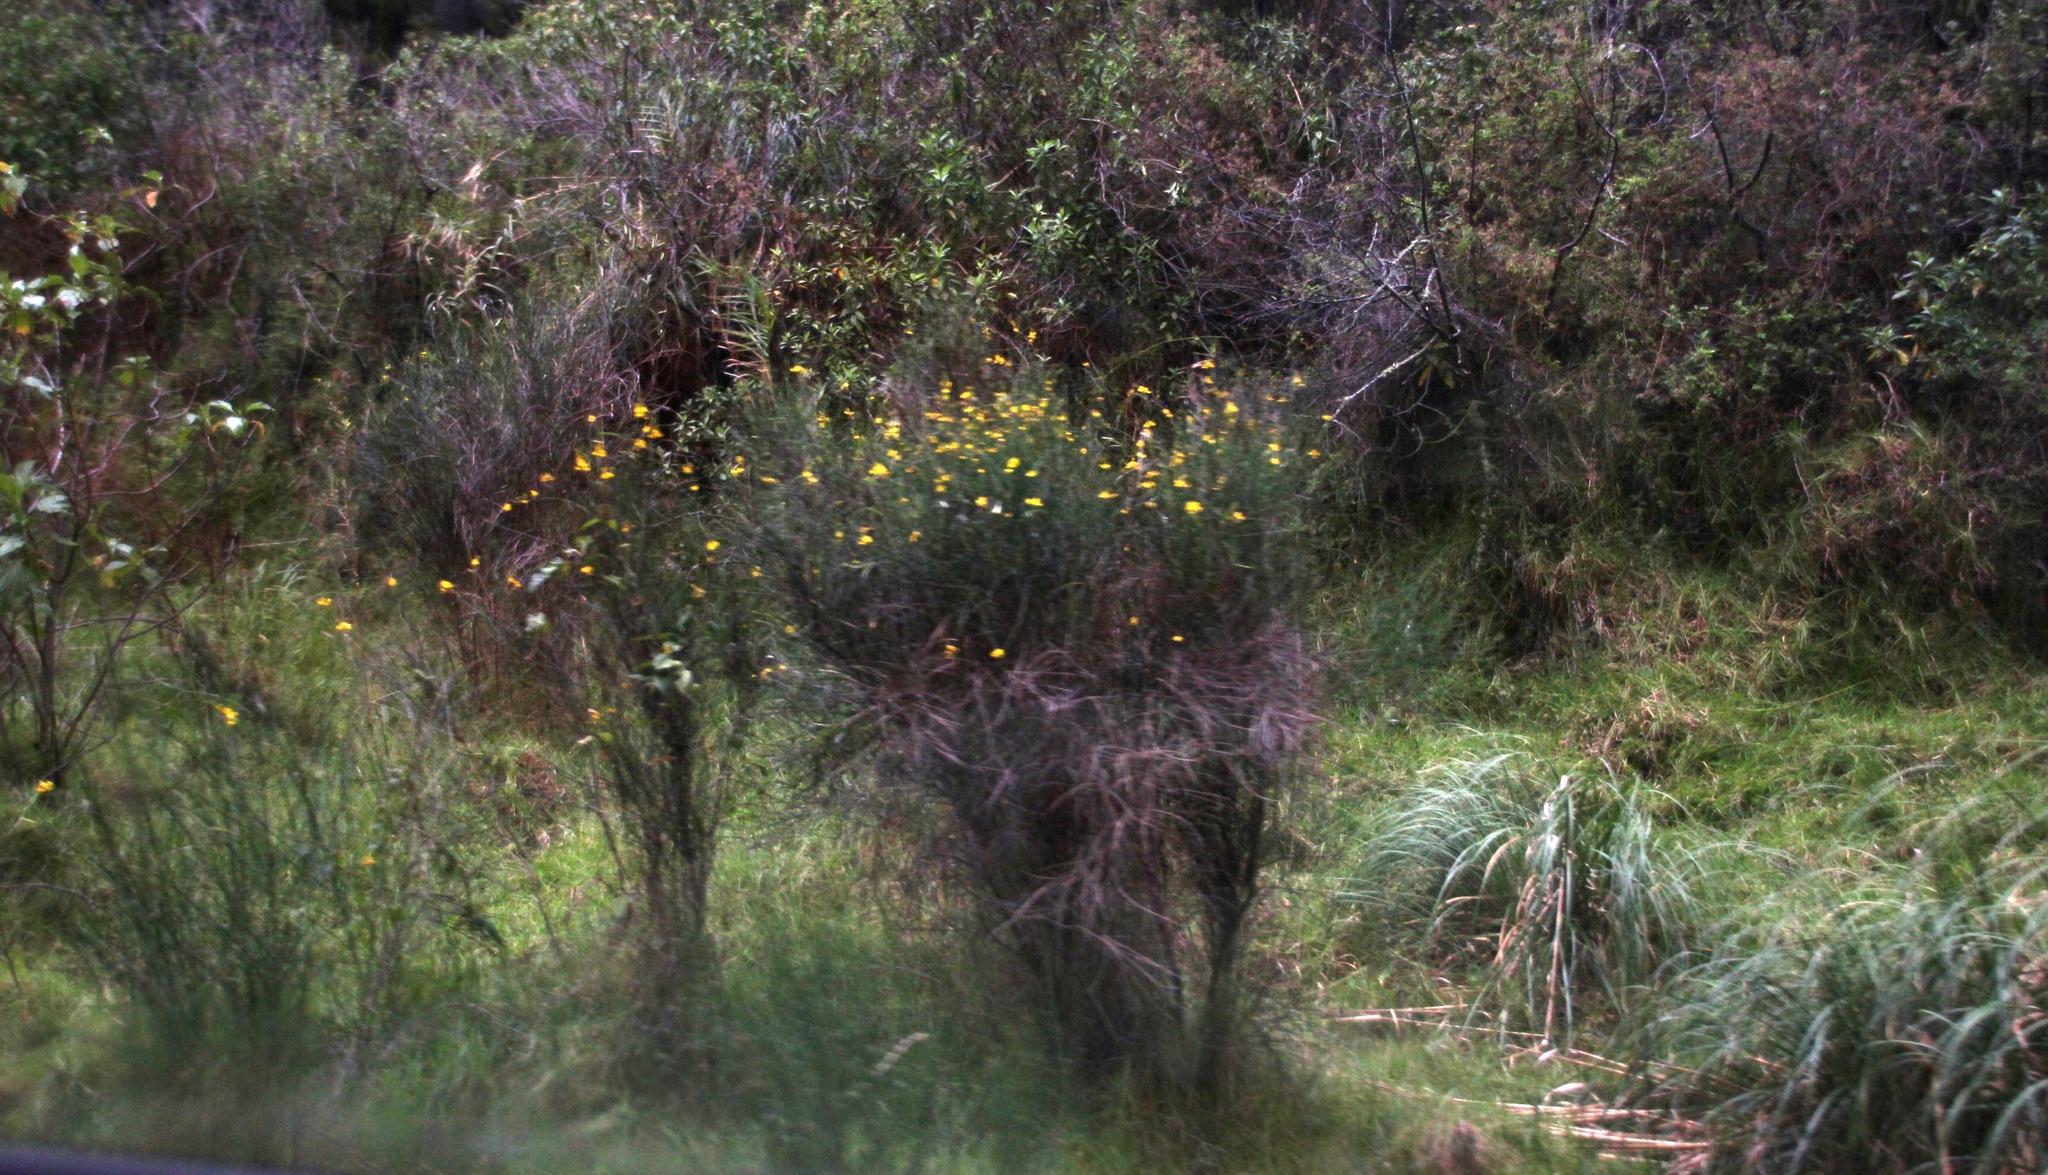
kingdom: Plantae
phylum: Tracheophyta
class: Magnoliopsida
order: Fabales
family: Fabaceae
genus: Spartium
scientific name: Spartium junceum
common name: Spanish broom
